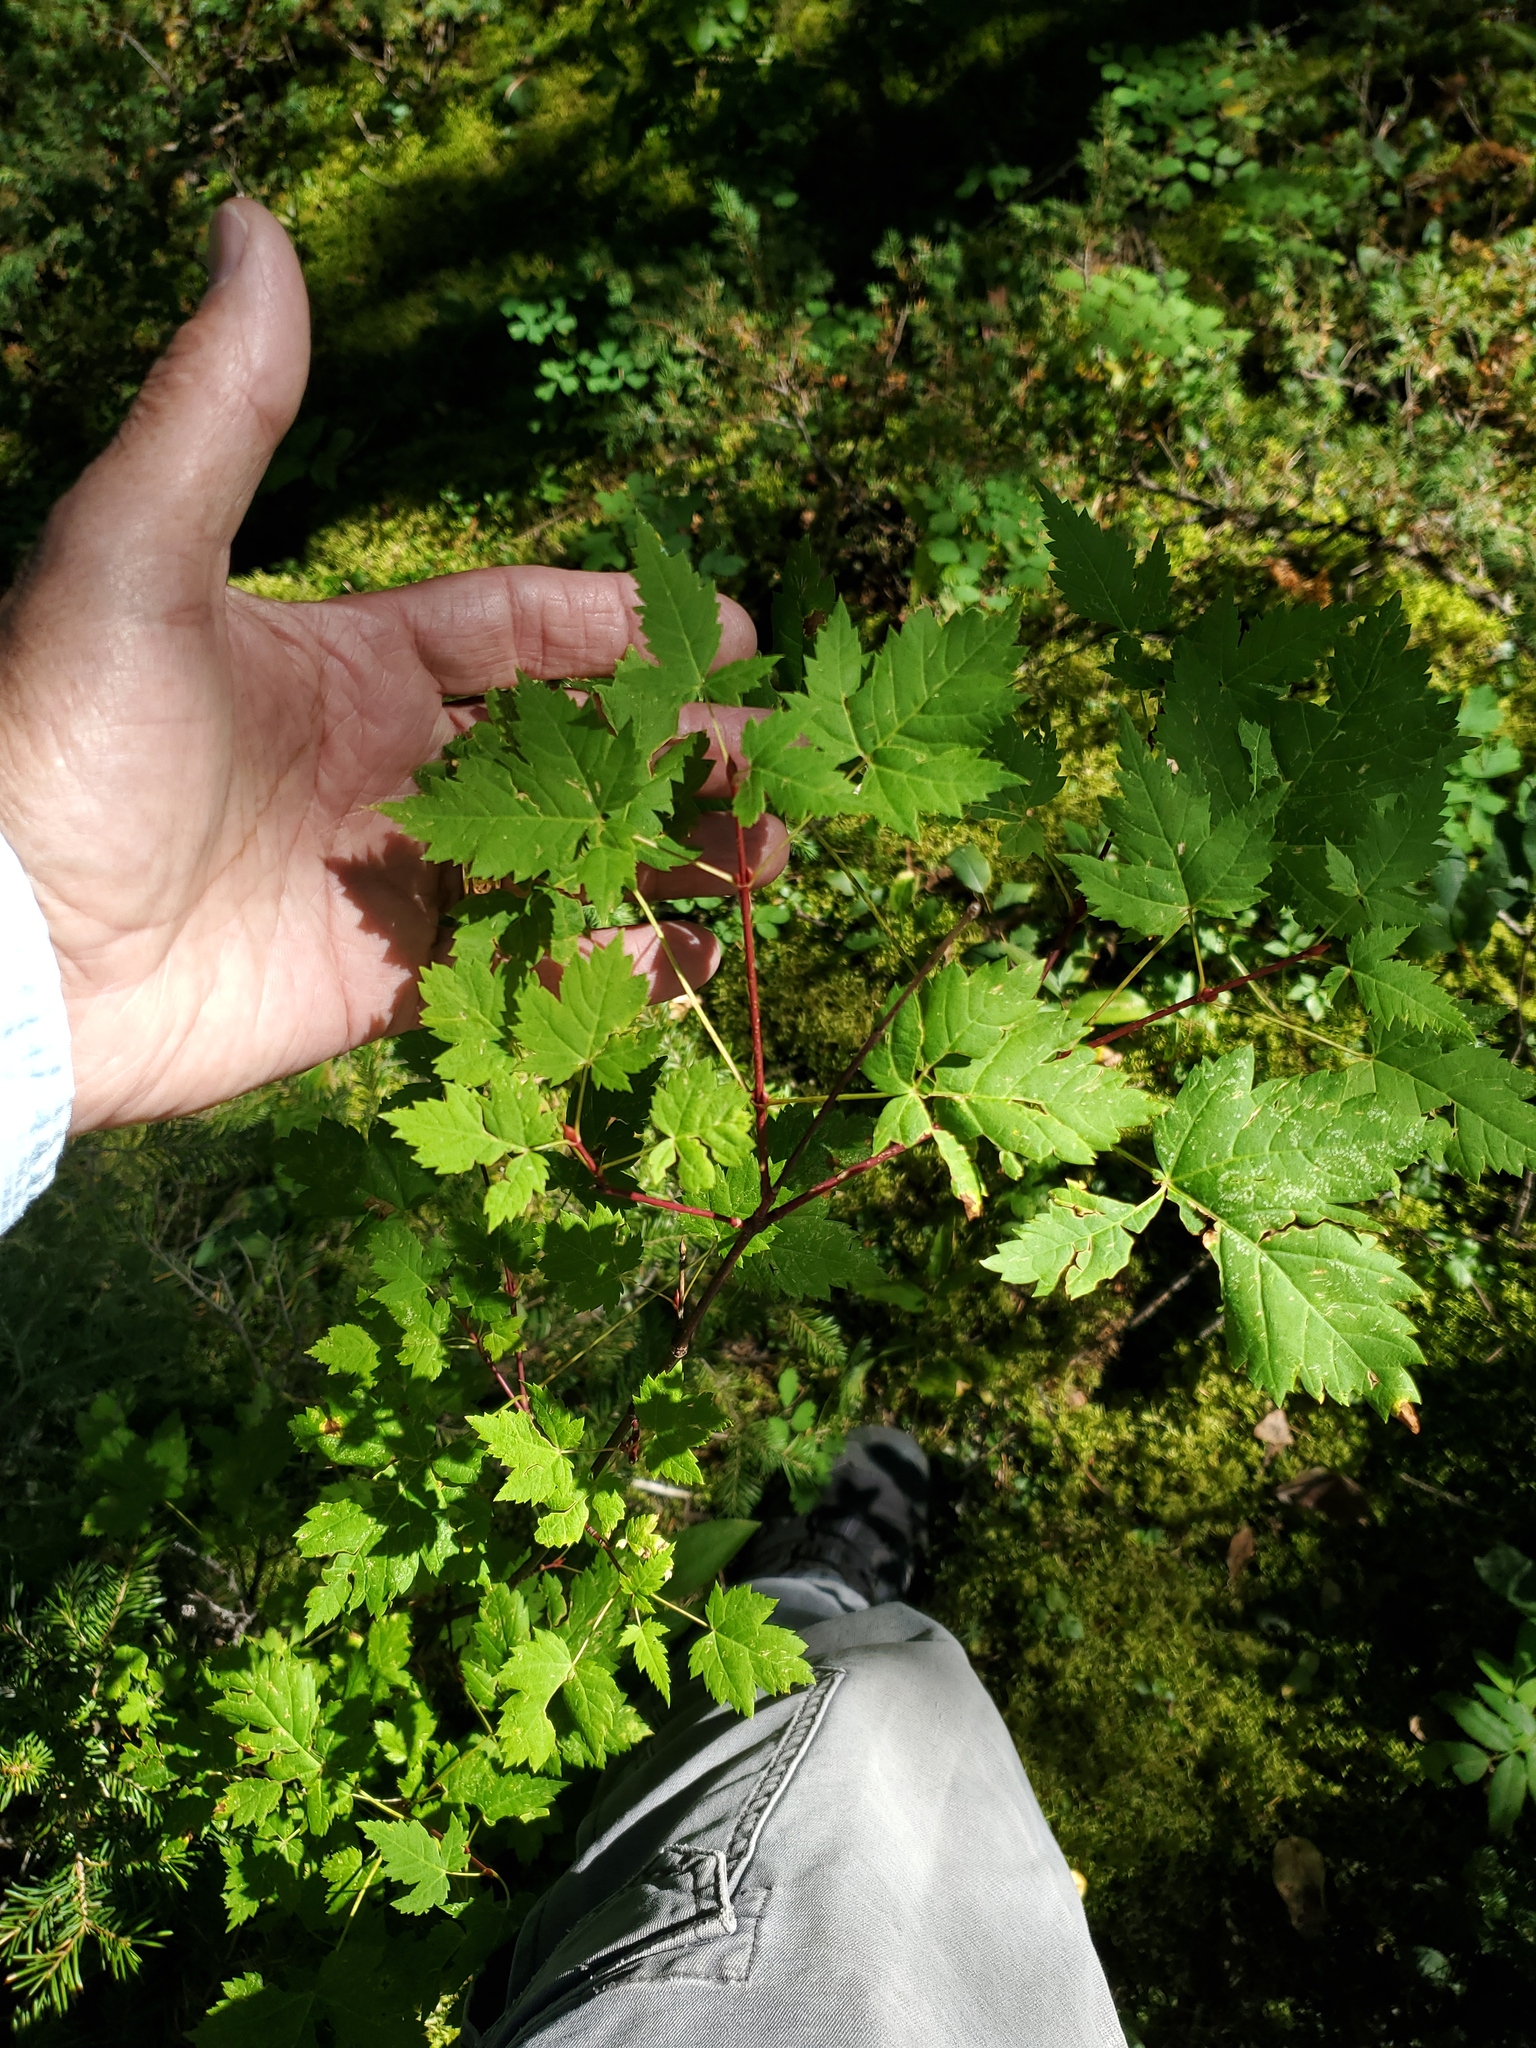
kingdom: Plantae
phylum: Tracheophyta
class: Magnoliopsida
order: Sapindales
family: Sapindaceae
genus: Acer
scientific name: Acer glabrum
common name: Rocky mountain maple
